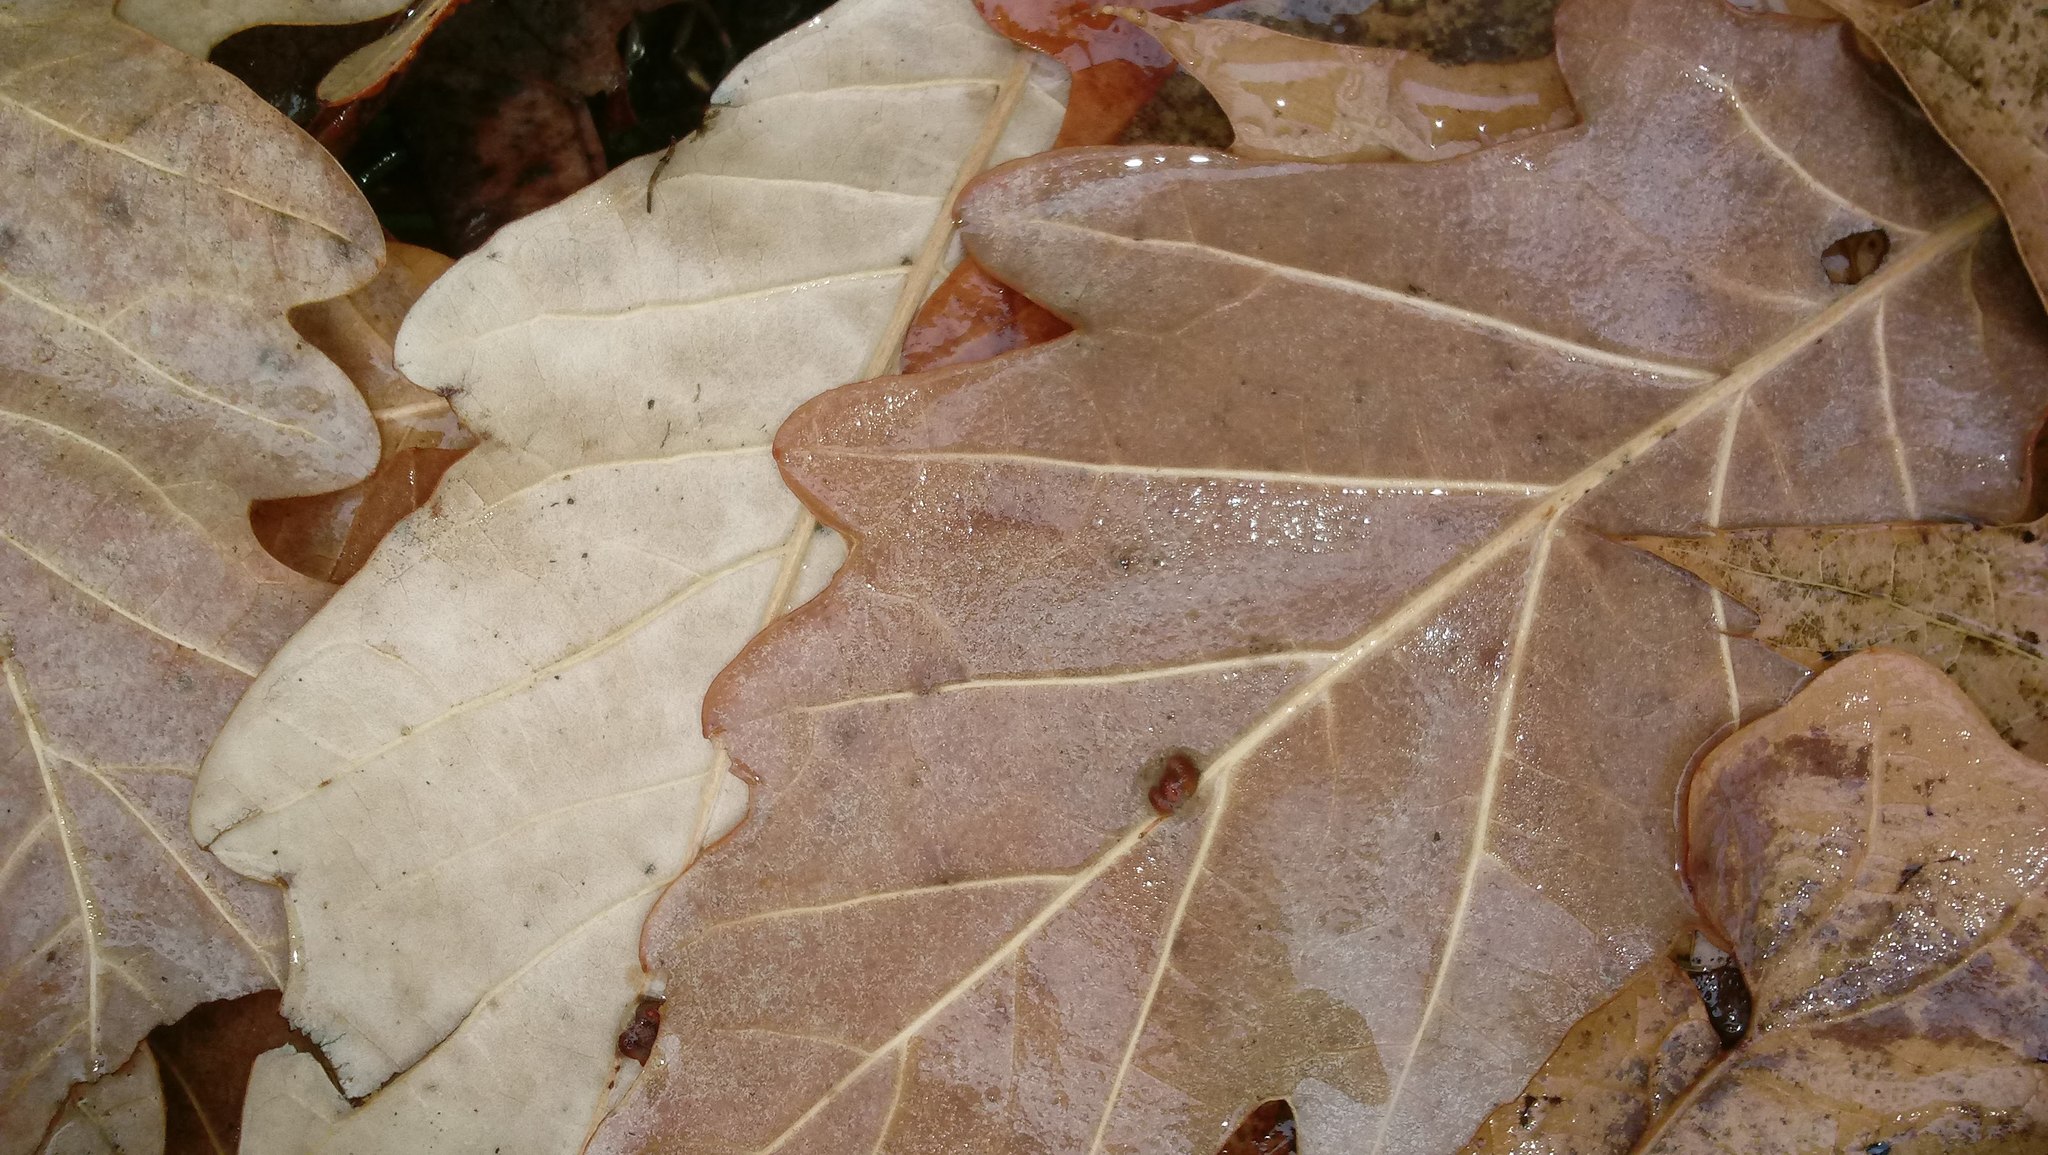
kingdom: Animalia
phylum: Arthropoda
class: Insecta
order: Hymenoptera
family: Cynipidae
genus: Andricus
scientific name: Andricus Druon ignotum
